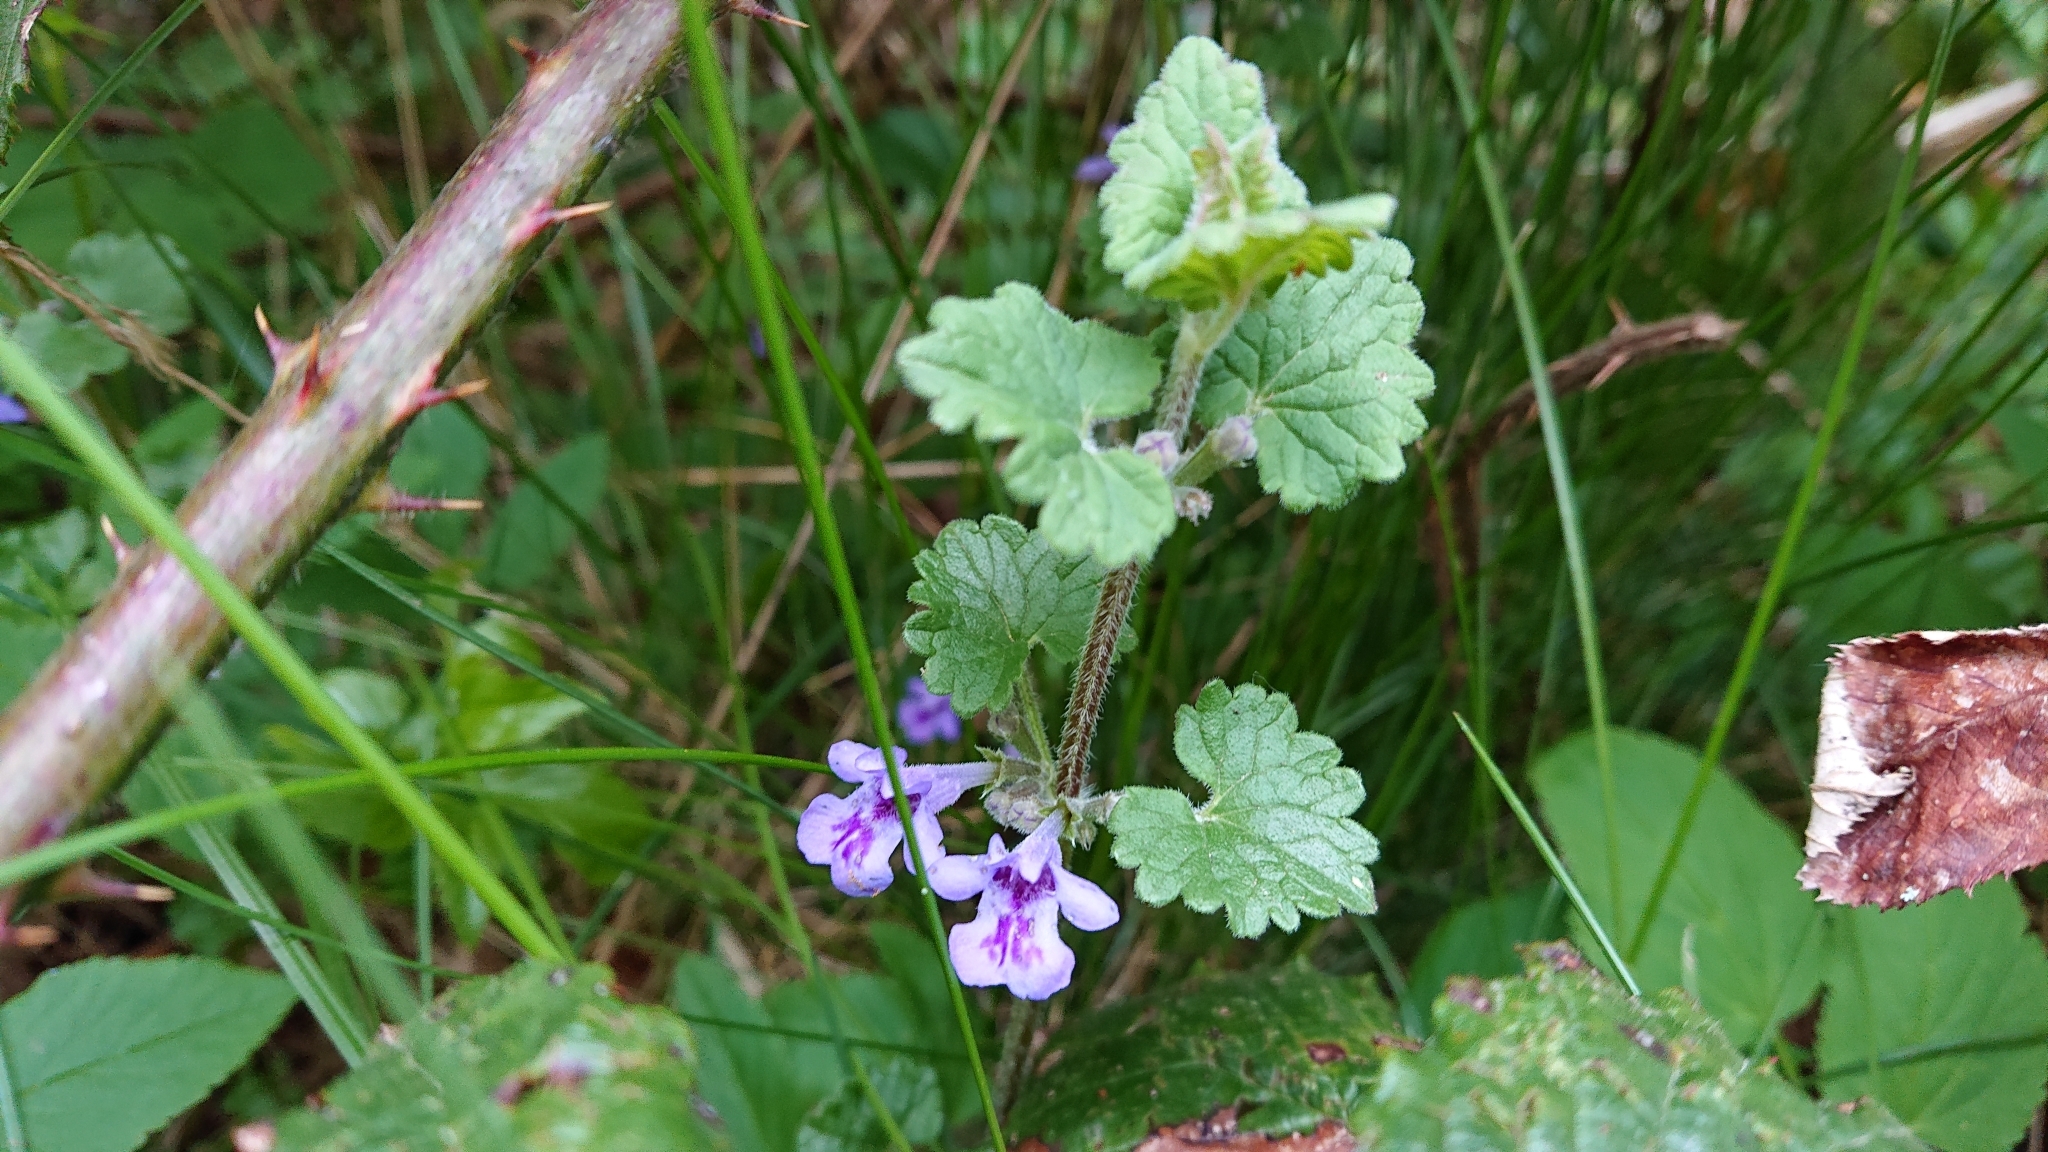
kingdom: Plantae
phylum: Tracheophyta
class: Magnoliopsida
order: Lamiales
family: Lamiaceae
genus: Glechoma
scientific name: Glechoma hederacea
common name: Ground ivy
